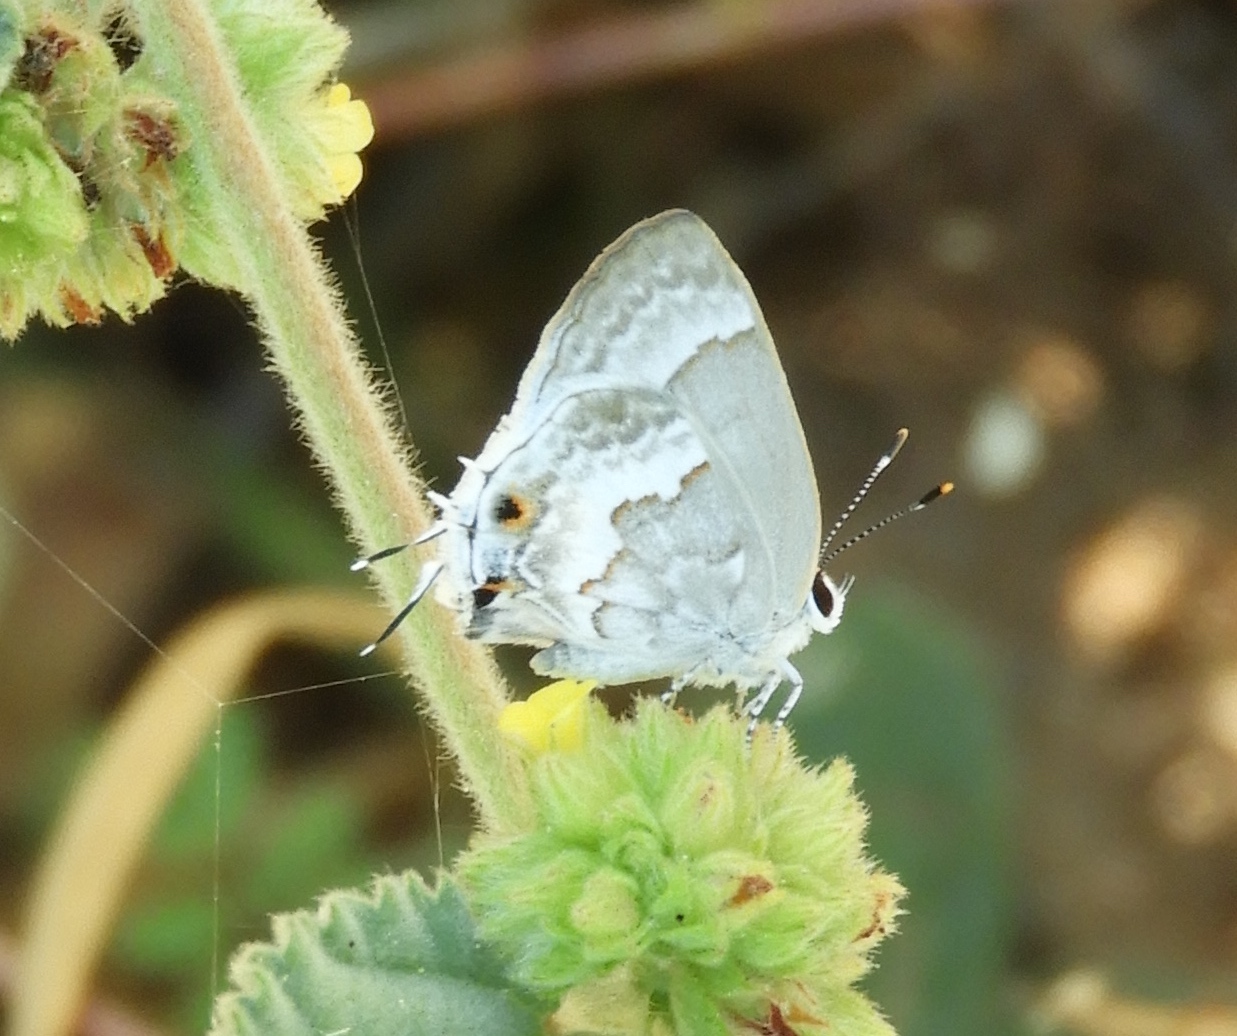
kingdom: Animalia
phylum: Arthropoda
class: Insecta
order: Lepidoptera
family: Lycaenidae
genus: Strymon
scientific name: Strymon albata
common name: White scrub-hairstreak
